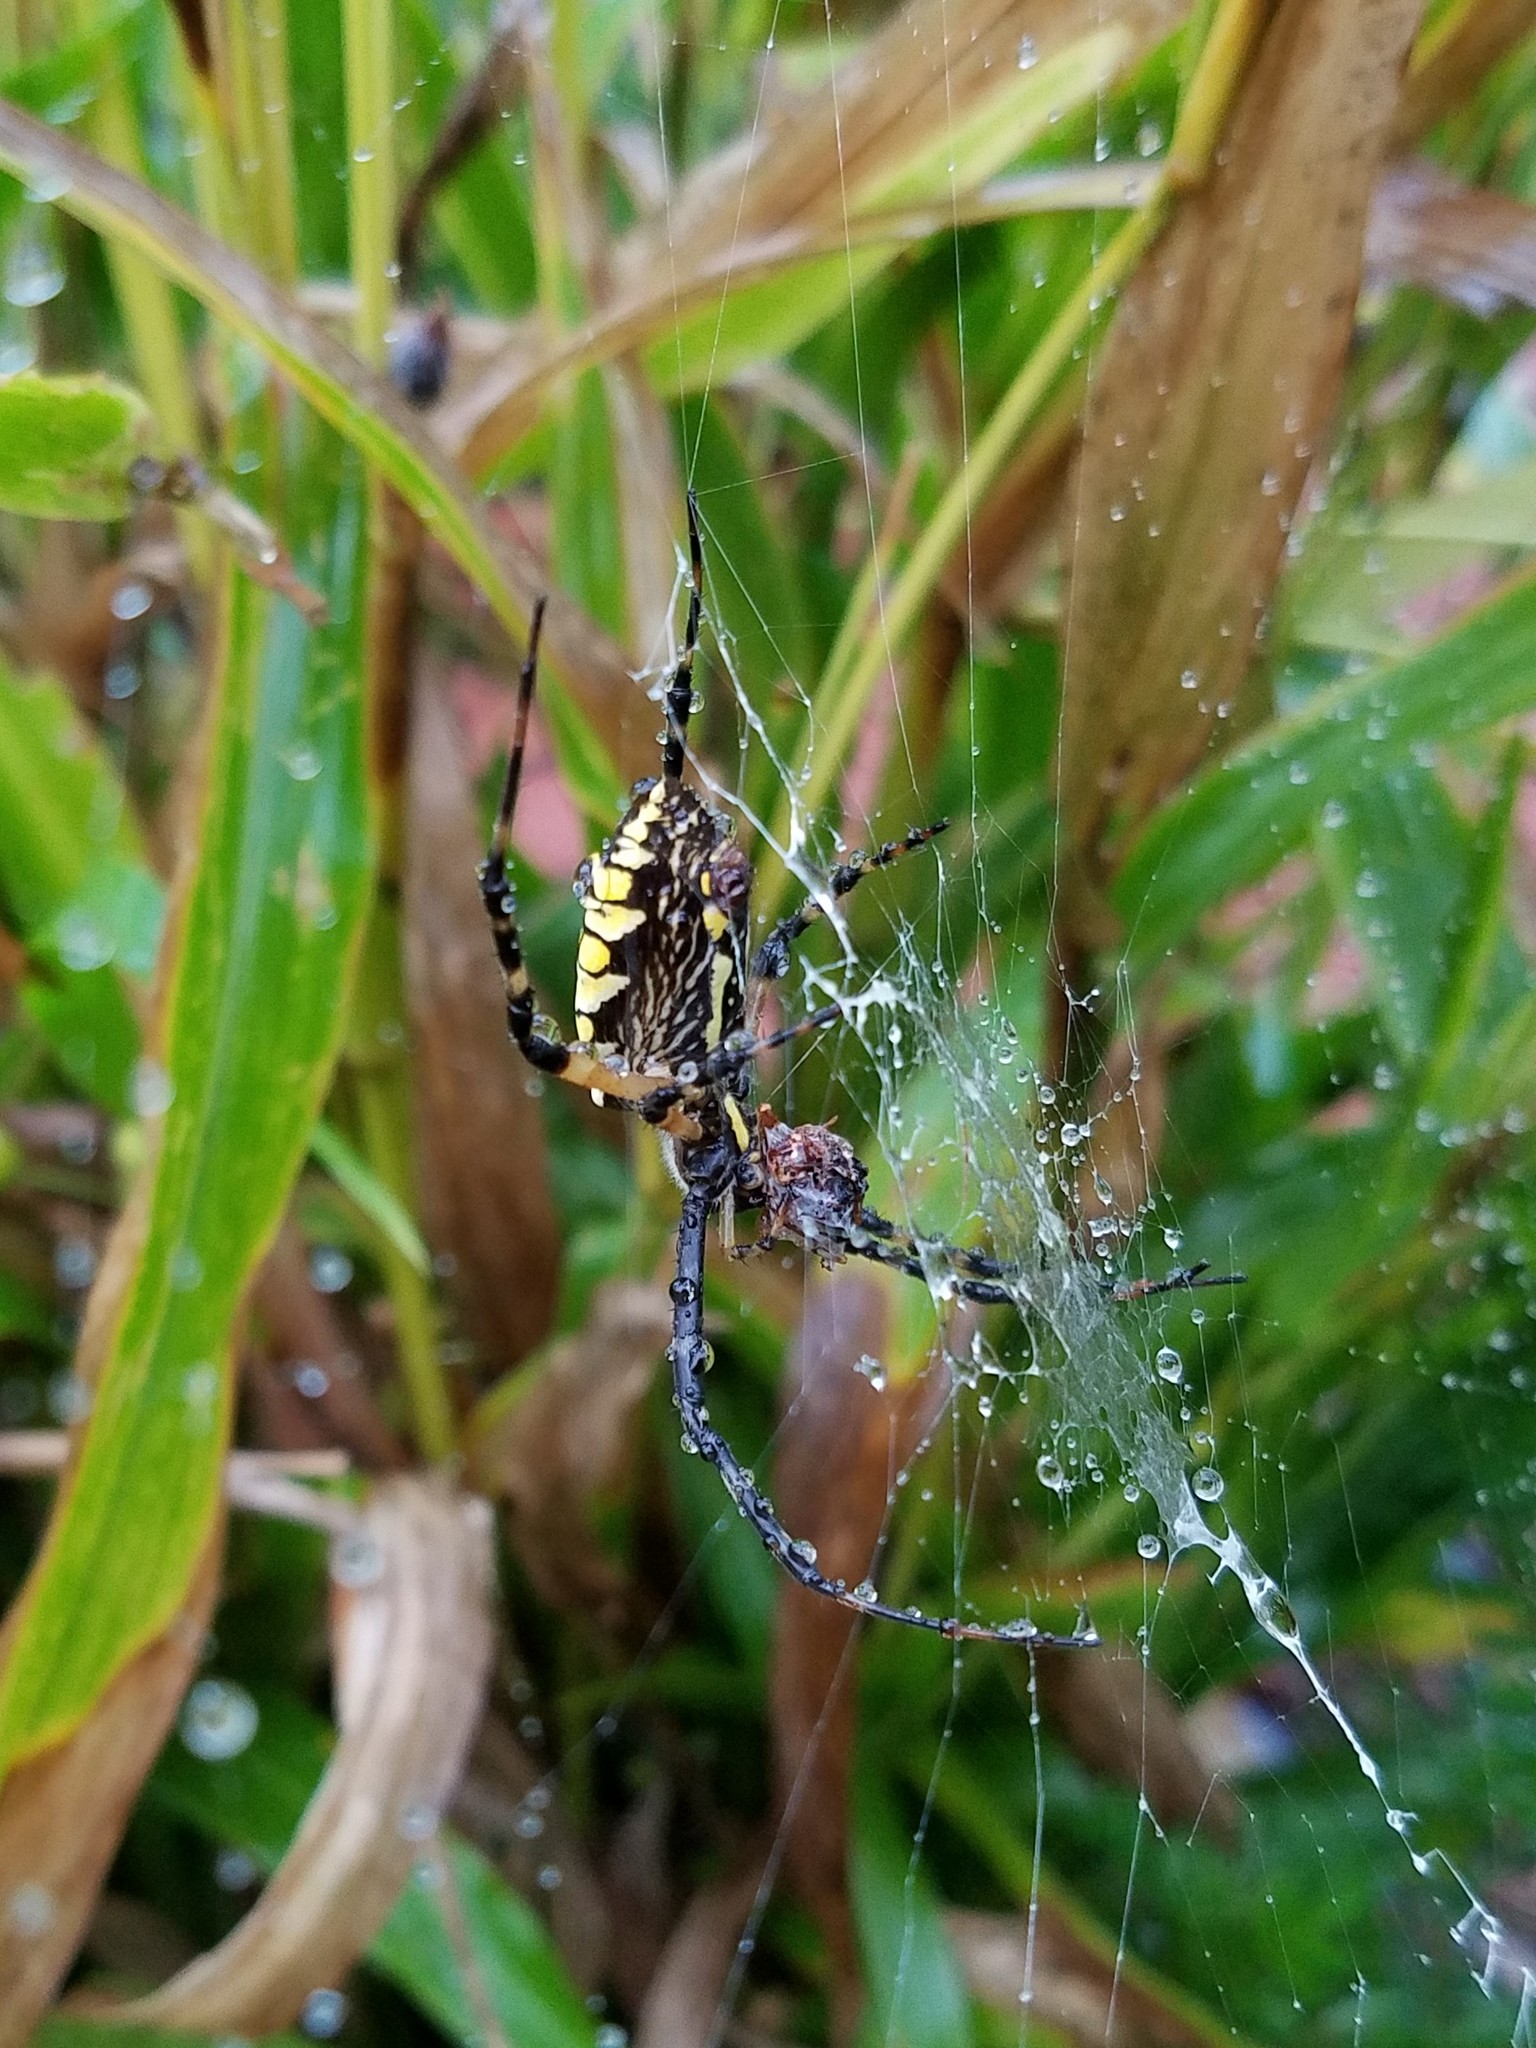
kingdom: Animalia
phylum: Arthropoda
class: Arachnida
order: Araneae
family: Araneidae
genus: Argiope
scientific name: Argiope aurantia
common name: Orb weavers
